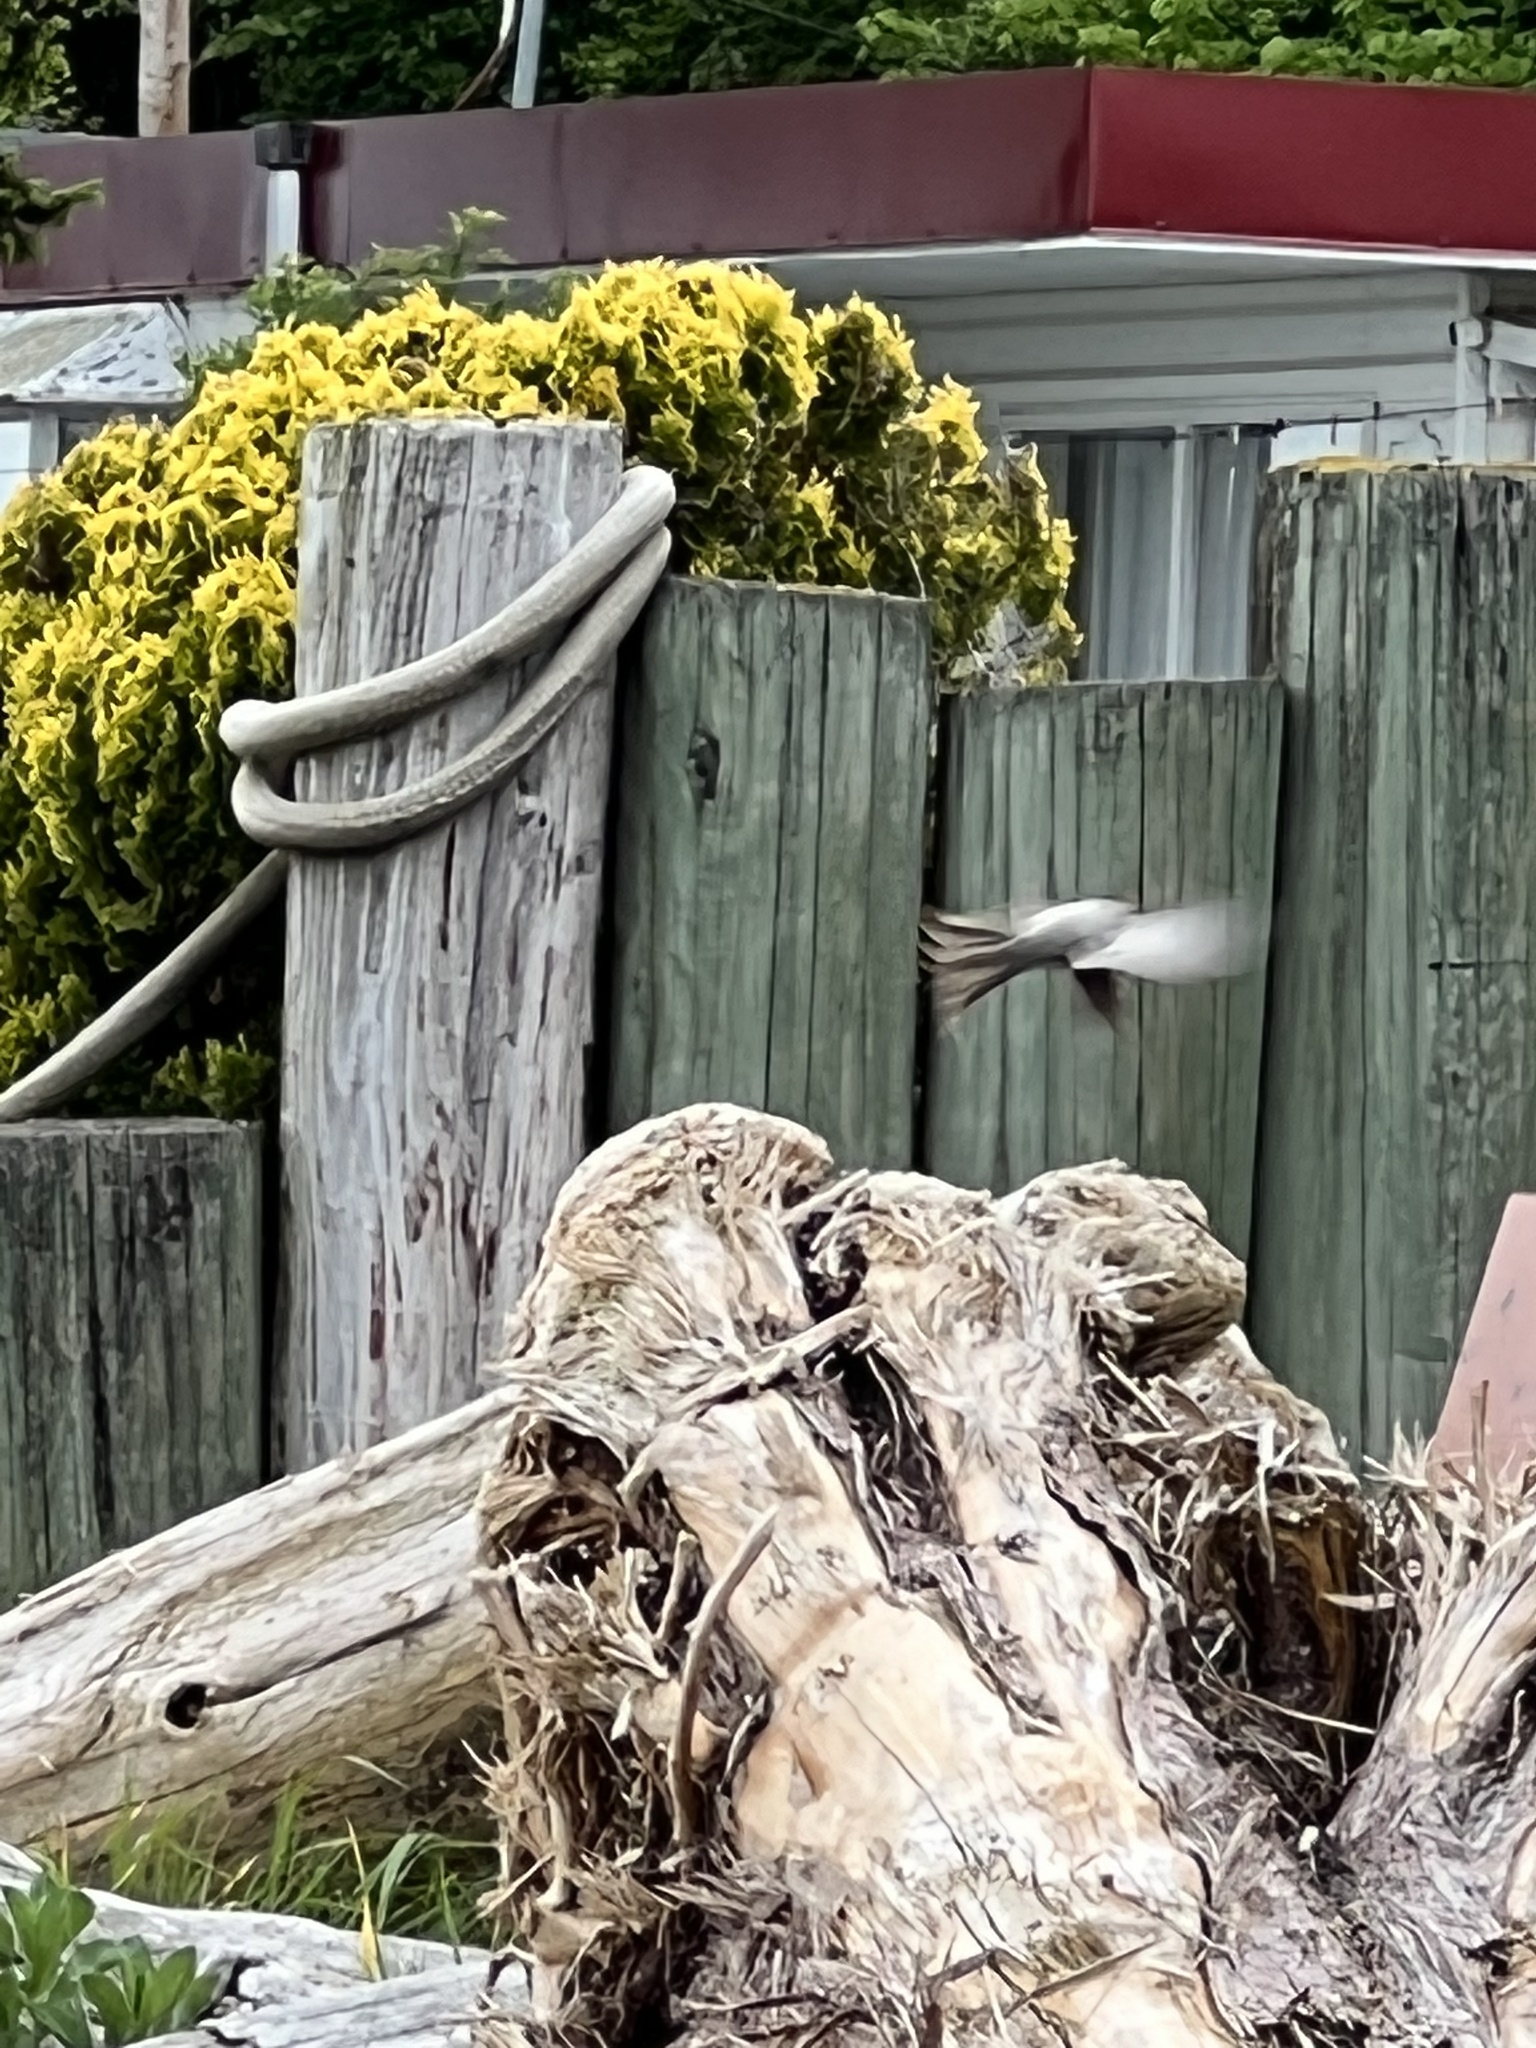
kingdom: Animalia
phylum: Chordata
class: Aves
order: Passeriformes
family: Passerellidae
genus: Spizella
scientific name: Spizella passerina
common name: Chipping sparrow
